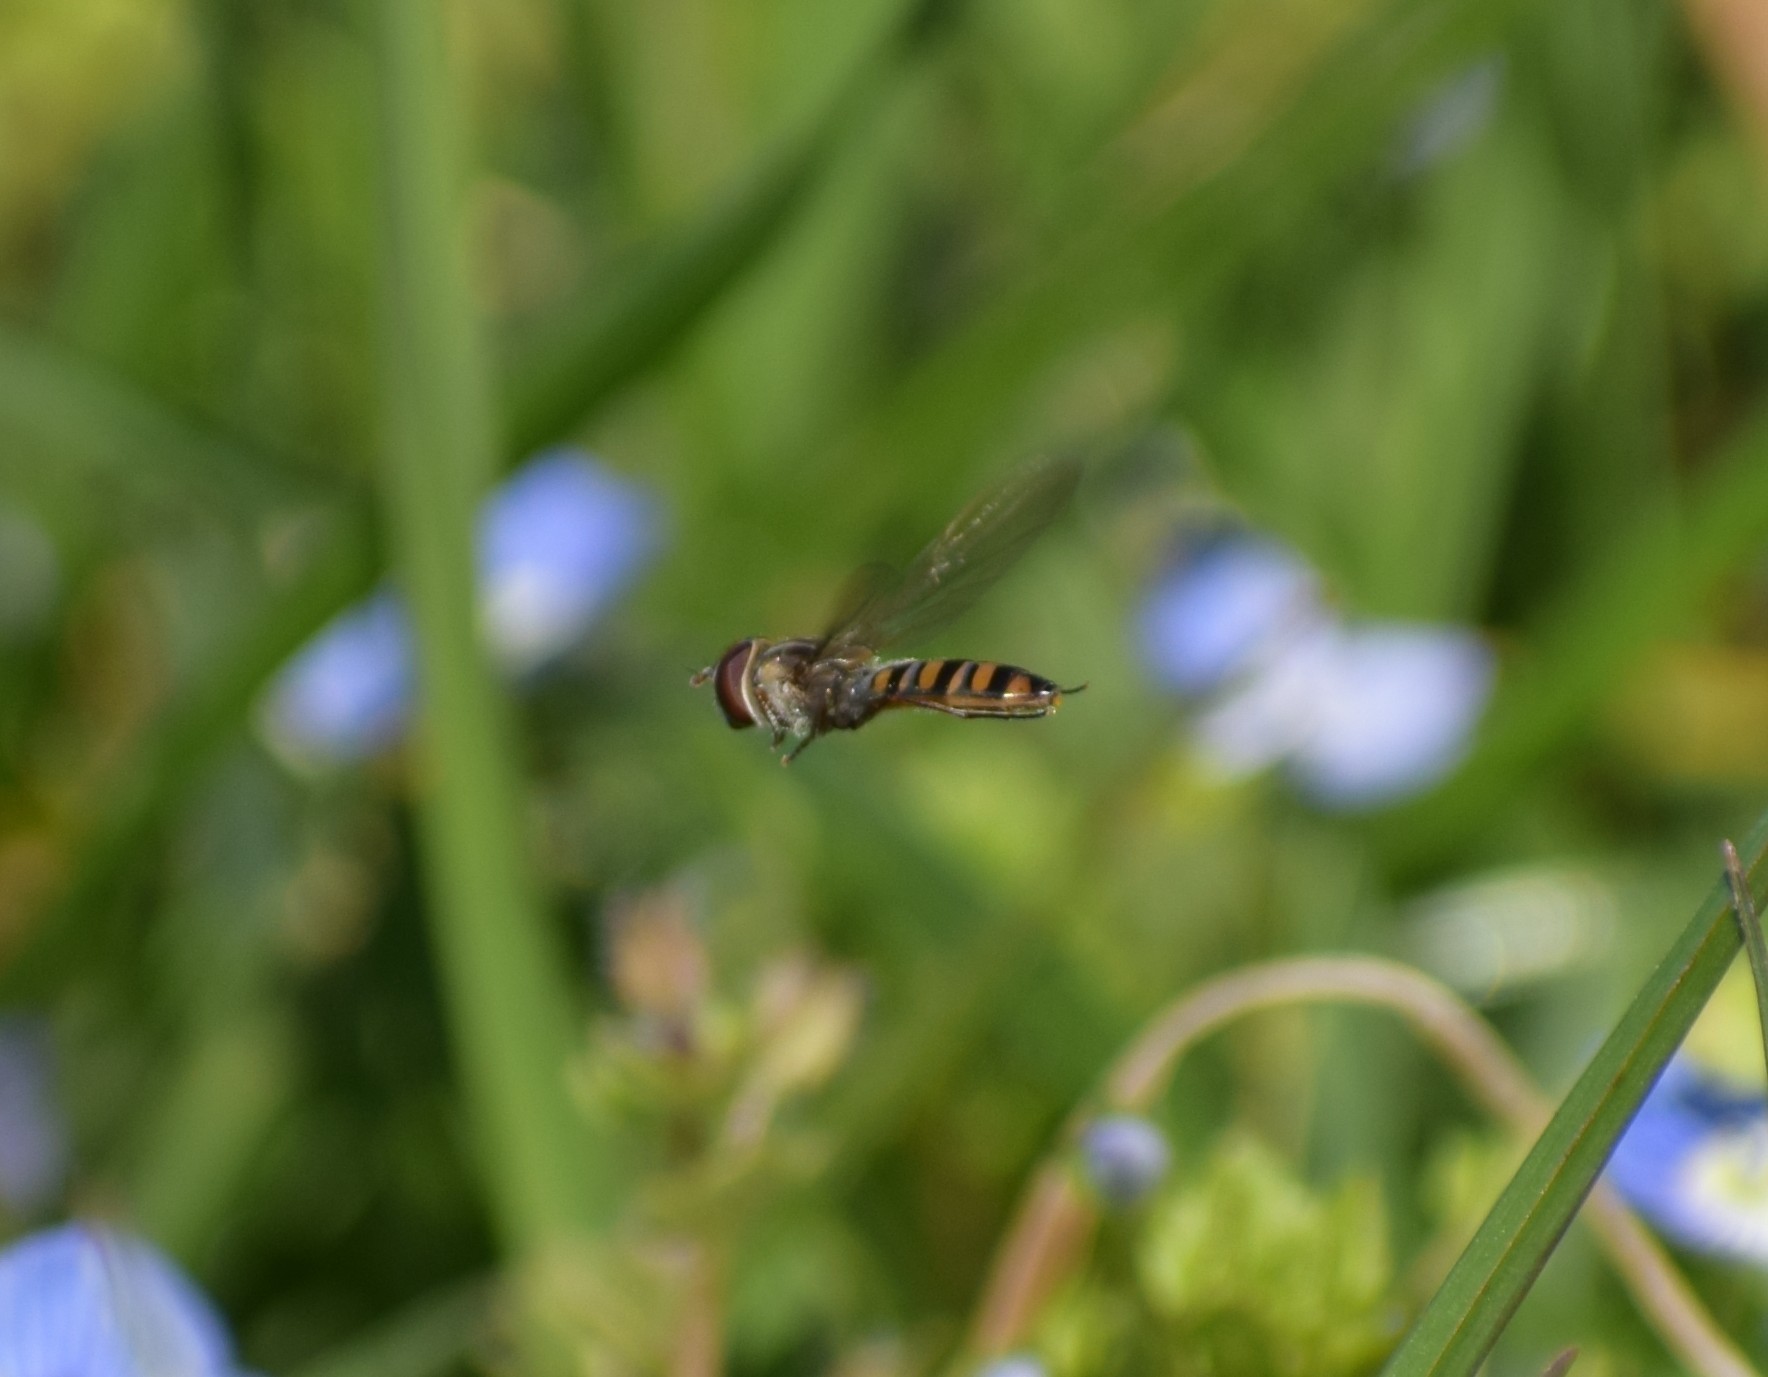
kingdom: Animalia
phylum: Arthropoda
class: Insecta
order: Diptera
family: Syrphidae
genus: Episyrphus
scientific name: Episyrphus balteatus
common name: Marmalade hoverfly
